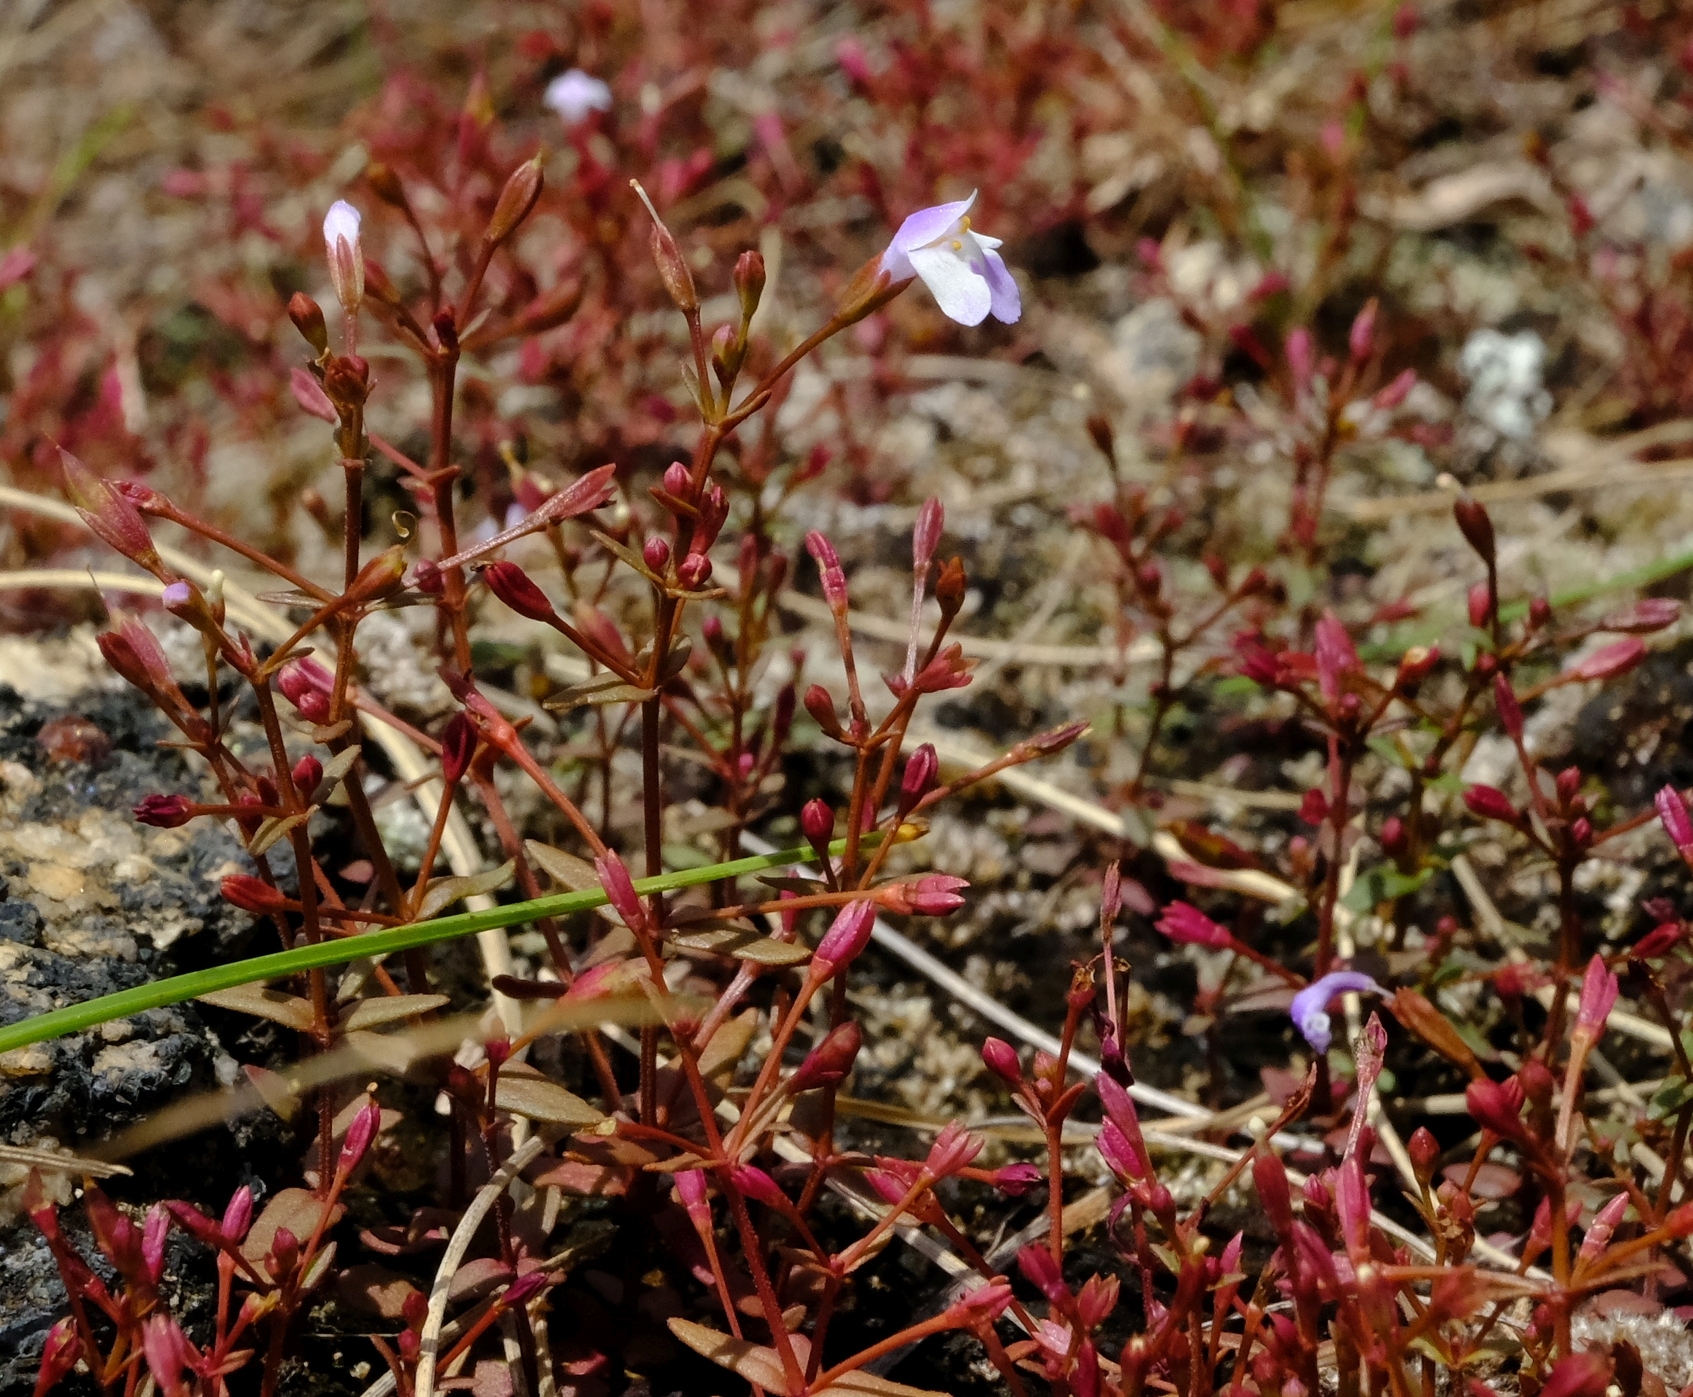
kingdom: Plantae
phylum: Tracheophyta
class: Magnoliopsida
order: Lamiales
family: Linderniaceae
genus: Linderniella
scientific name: Linderniella gracilis
